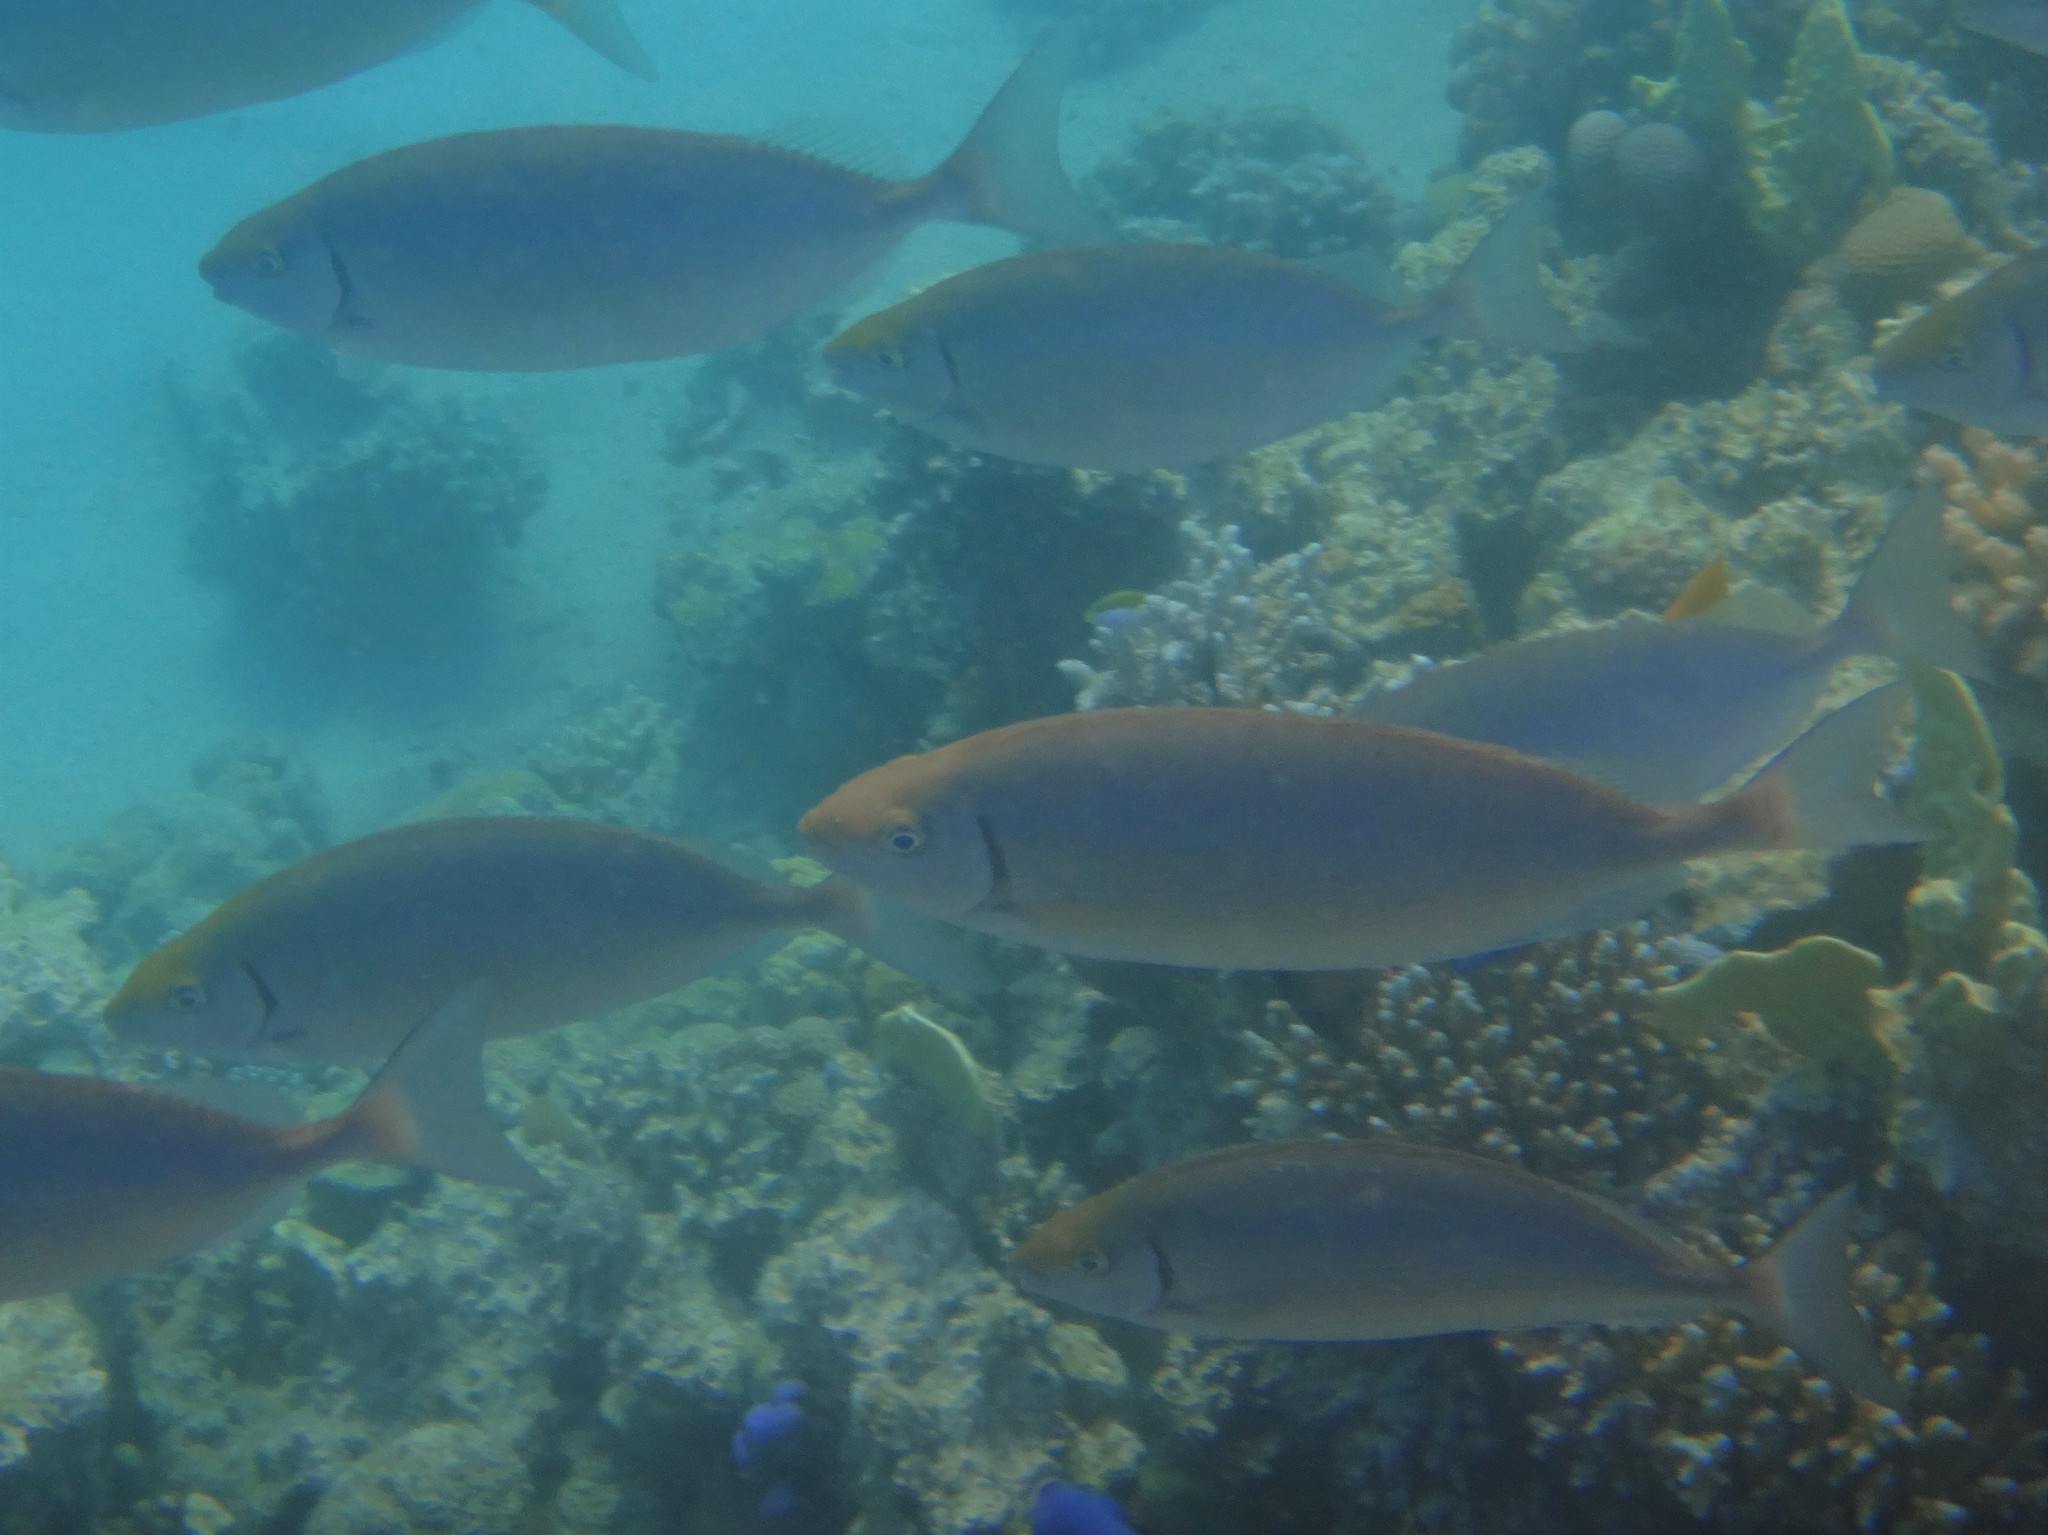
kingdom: Animalia
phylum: Chordata
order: Perciformes
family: Siganidae
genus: Siganus
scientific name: Siganus rivulatus
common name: Marbled spinefoot
